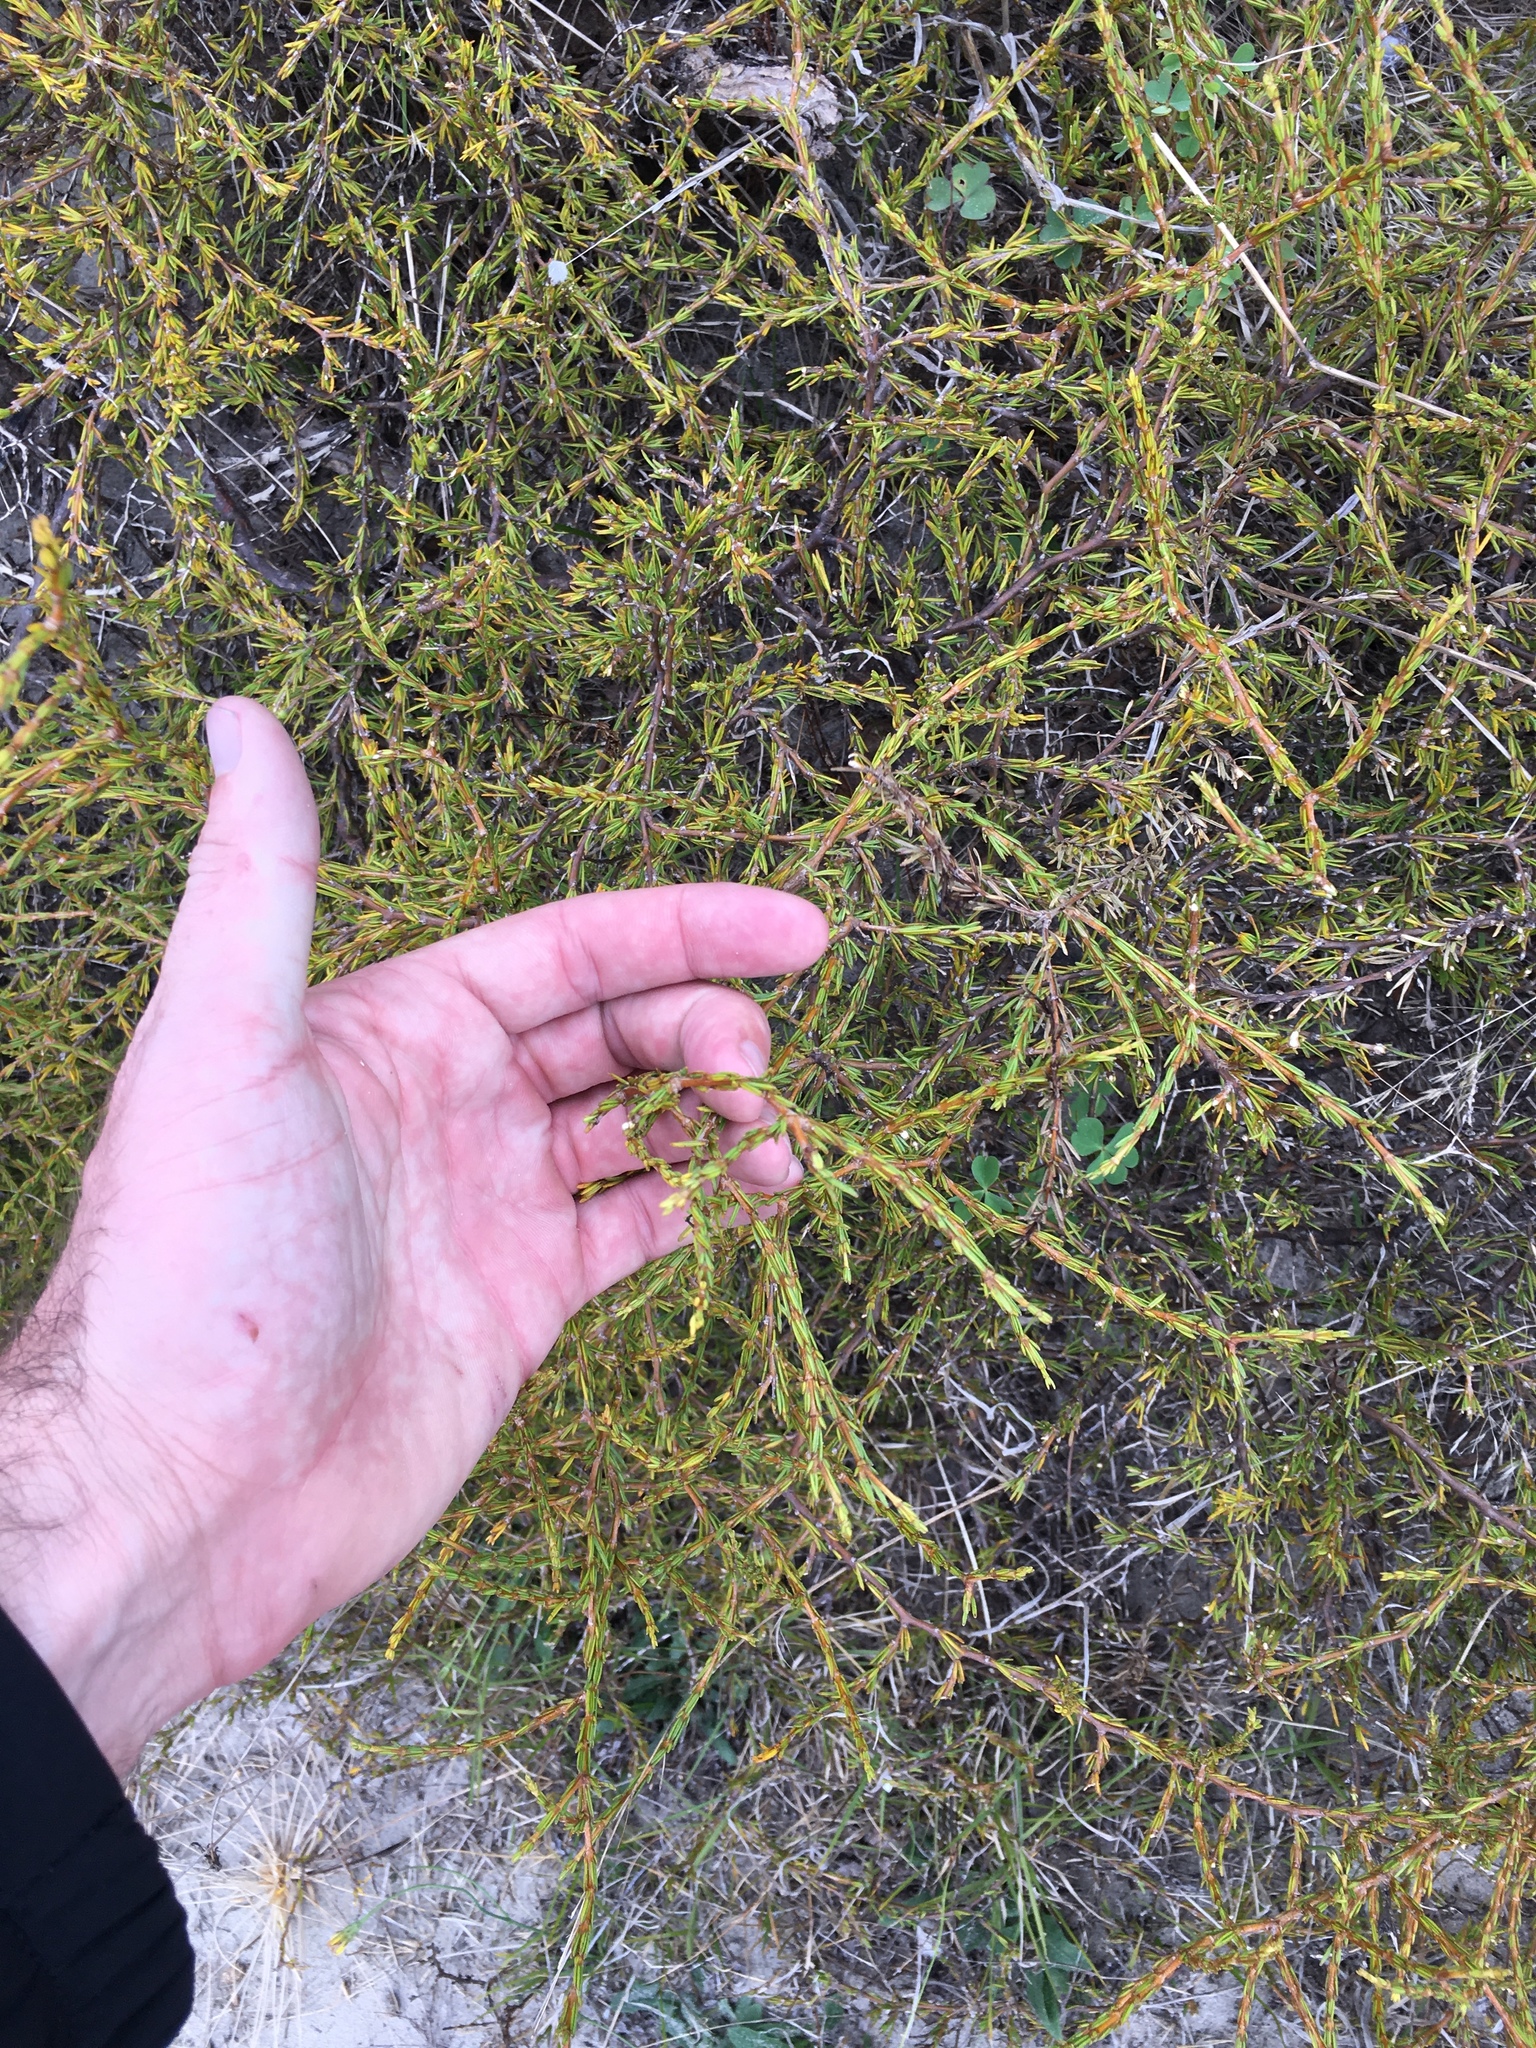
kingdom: Plantae
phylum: Tracheophyta
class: Magnoliopsida
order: Gentianales
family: Rubiaceae
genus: Coprosma
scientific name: Coprosma acerosa
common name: Sand coprosma
